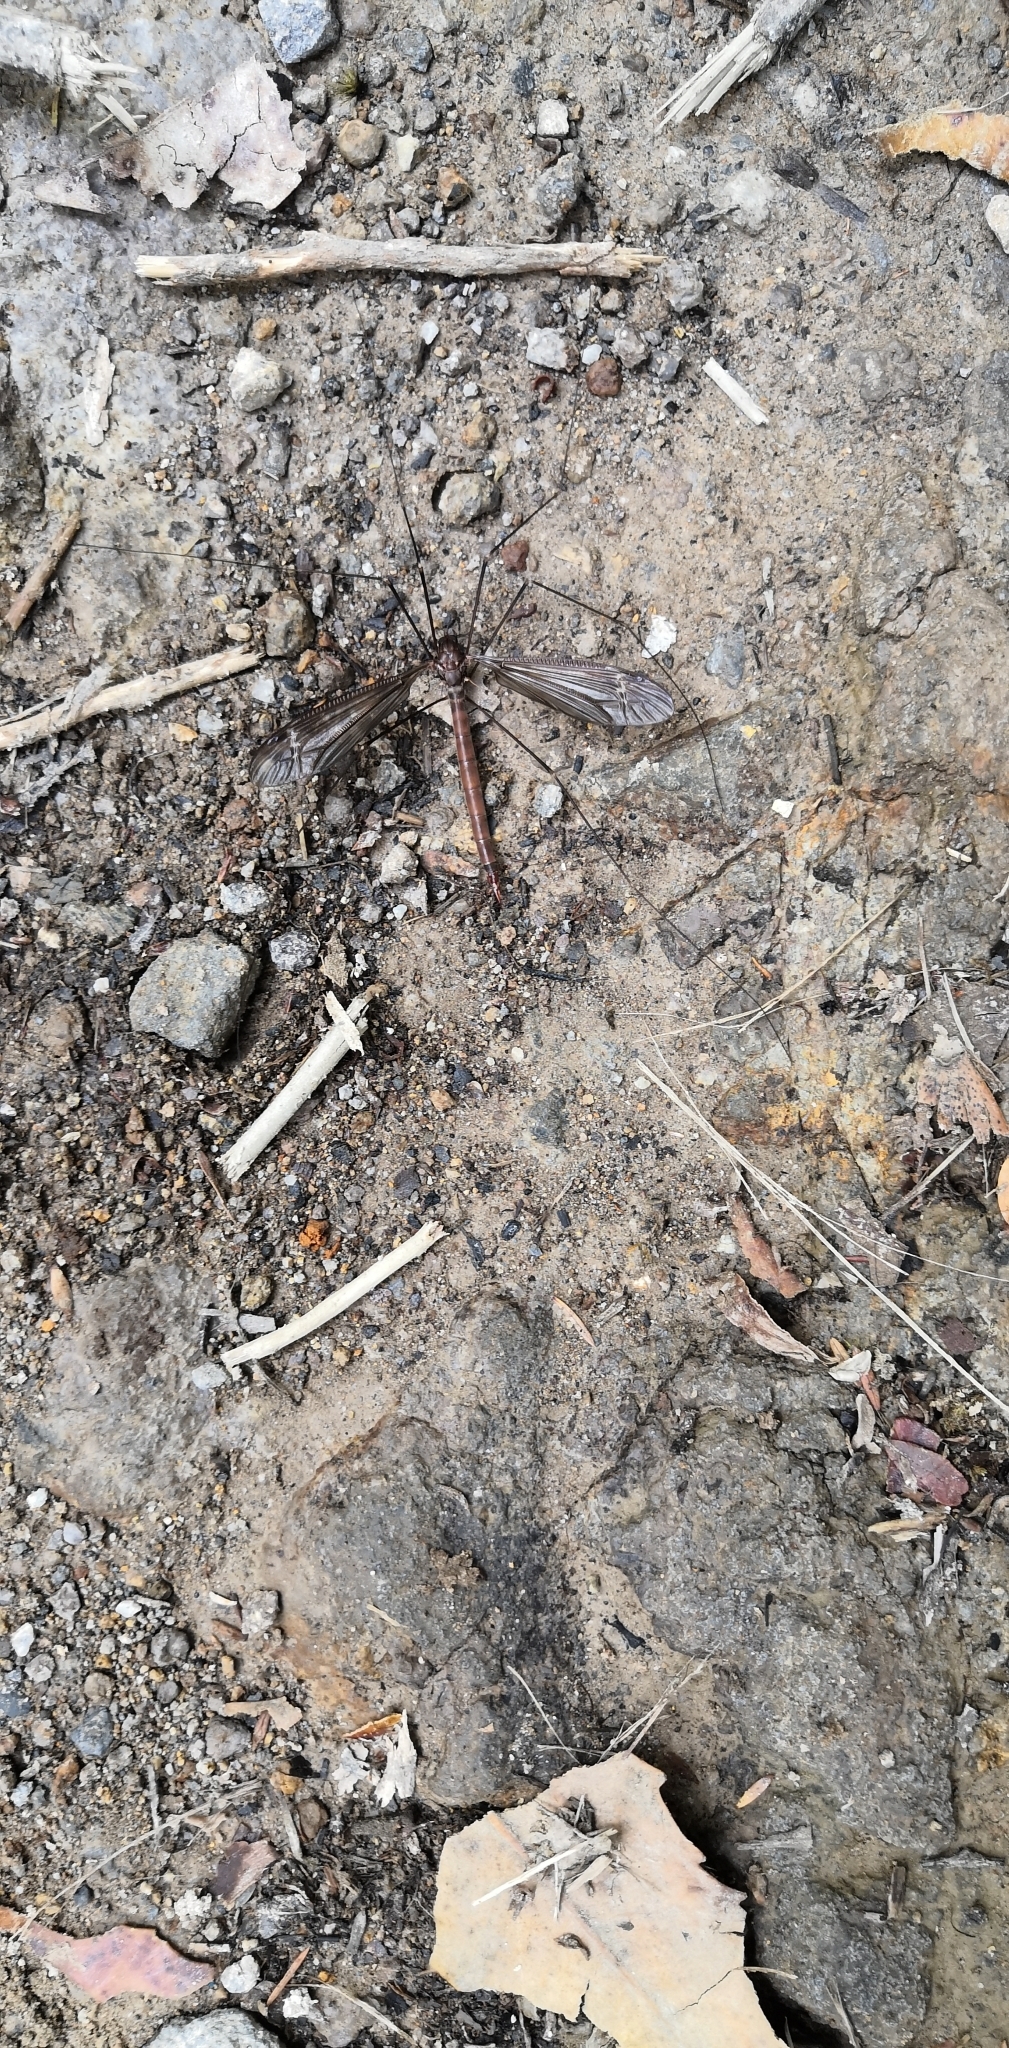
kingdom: Animalia
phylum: Arthropoda
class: Insecta
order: Diptera
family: Tipulidae
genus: Austrotipula
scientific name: Austrotipula hudsoni
